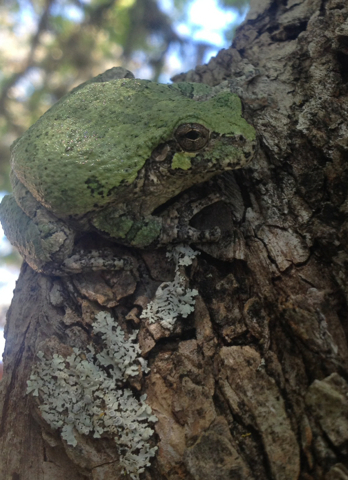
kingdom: Animalia
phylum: Chordata
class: Amphibia
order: Anura
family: Hylidae
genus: Hyla
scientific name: Hyla
